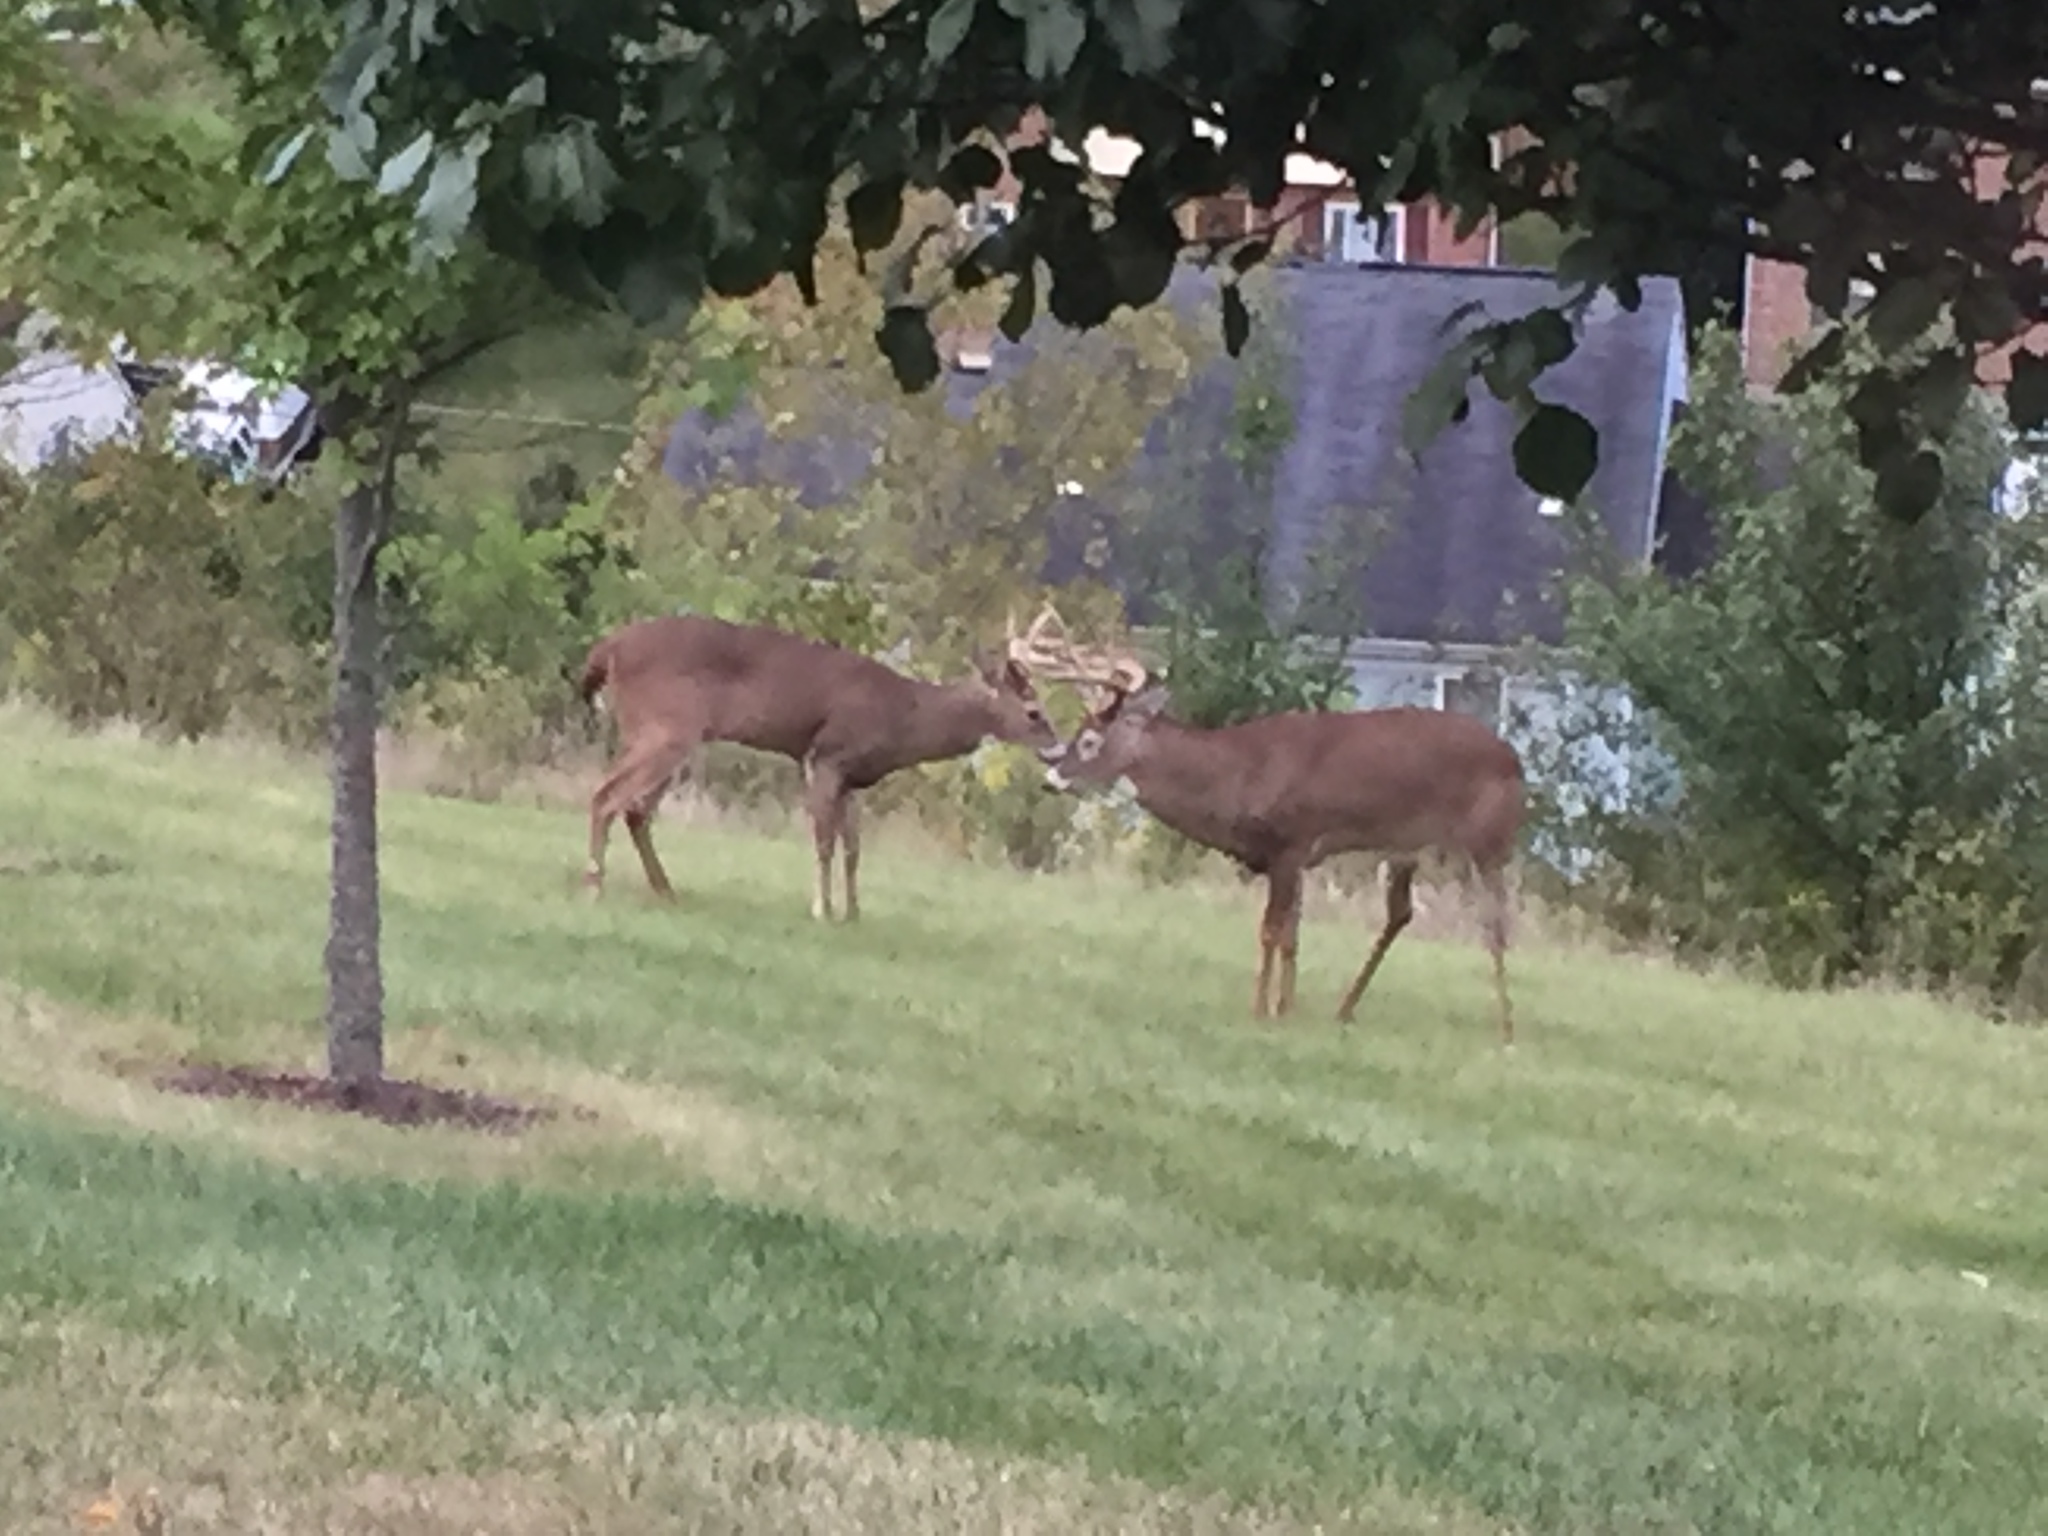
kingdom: Animalia
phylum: Chordata
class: Mammalia
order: Artiodactyla
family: Cervidae
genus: Odocoileus
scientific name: Odocoileus virginianus
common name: White-tailed deer
